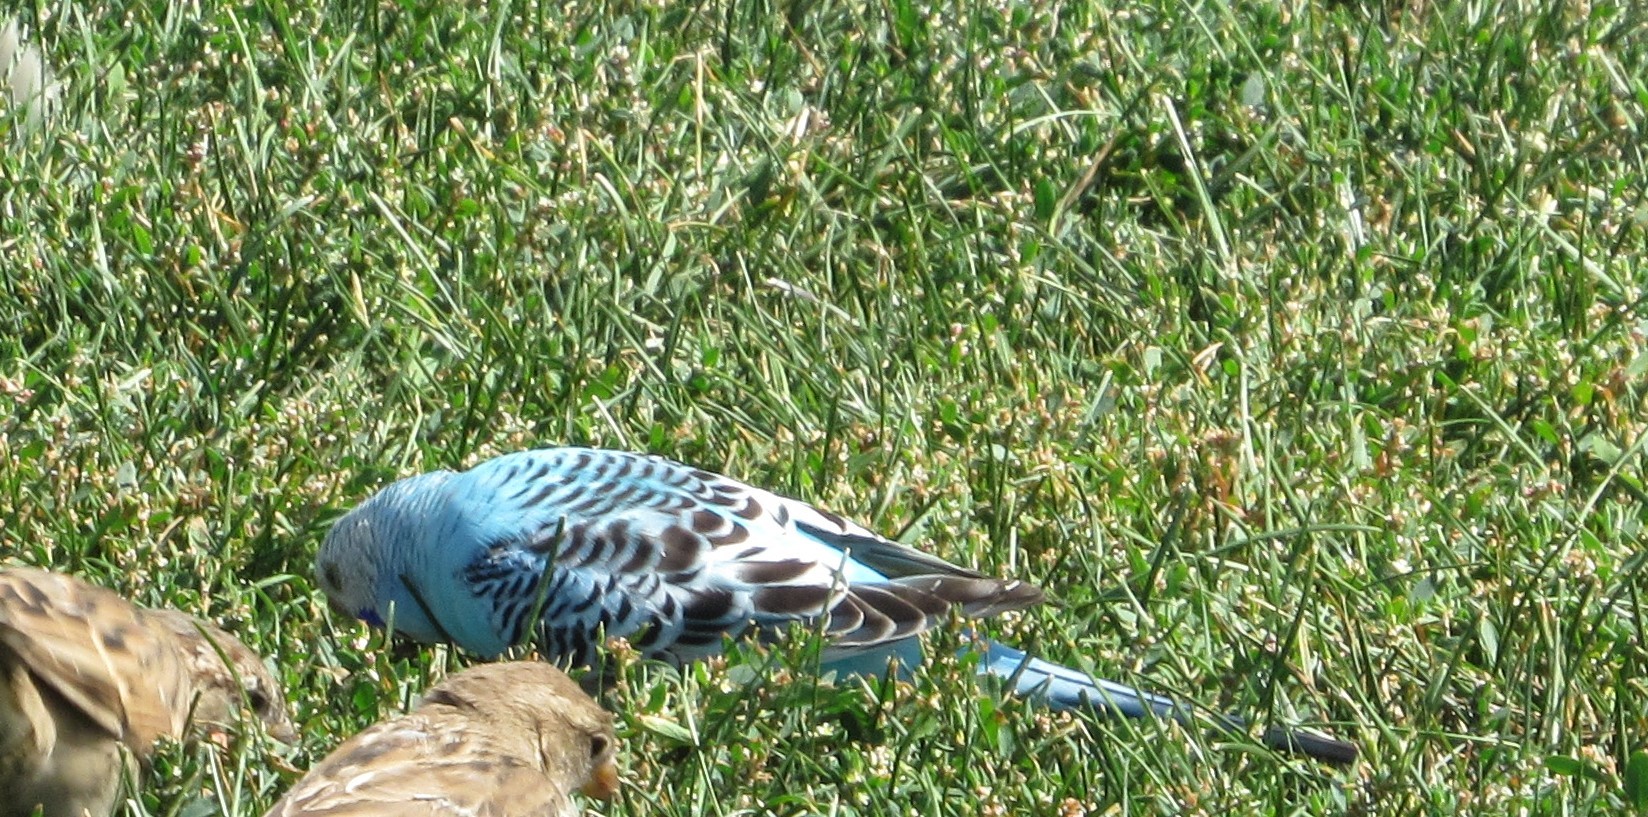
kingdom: Animalia
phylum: Chordata
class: Aves
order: Psittaciformes
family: Psittacidae
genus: Melopsittacus
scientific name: Melopsittacus undulatus
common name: Budgerigar
